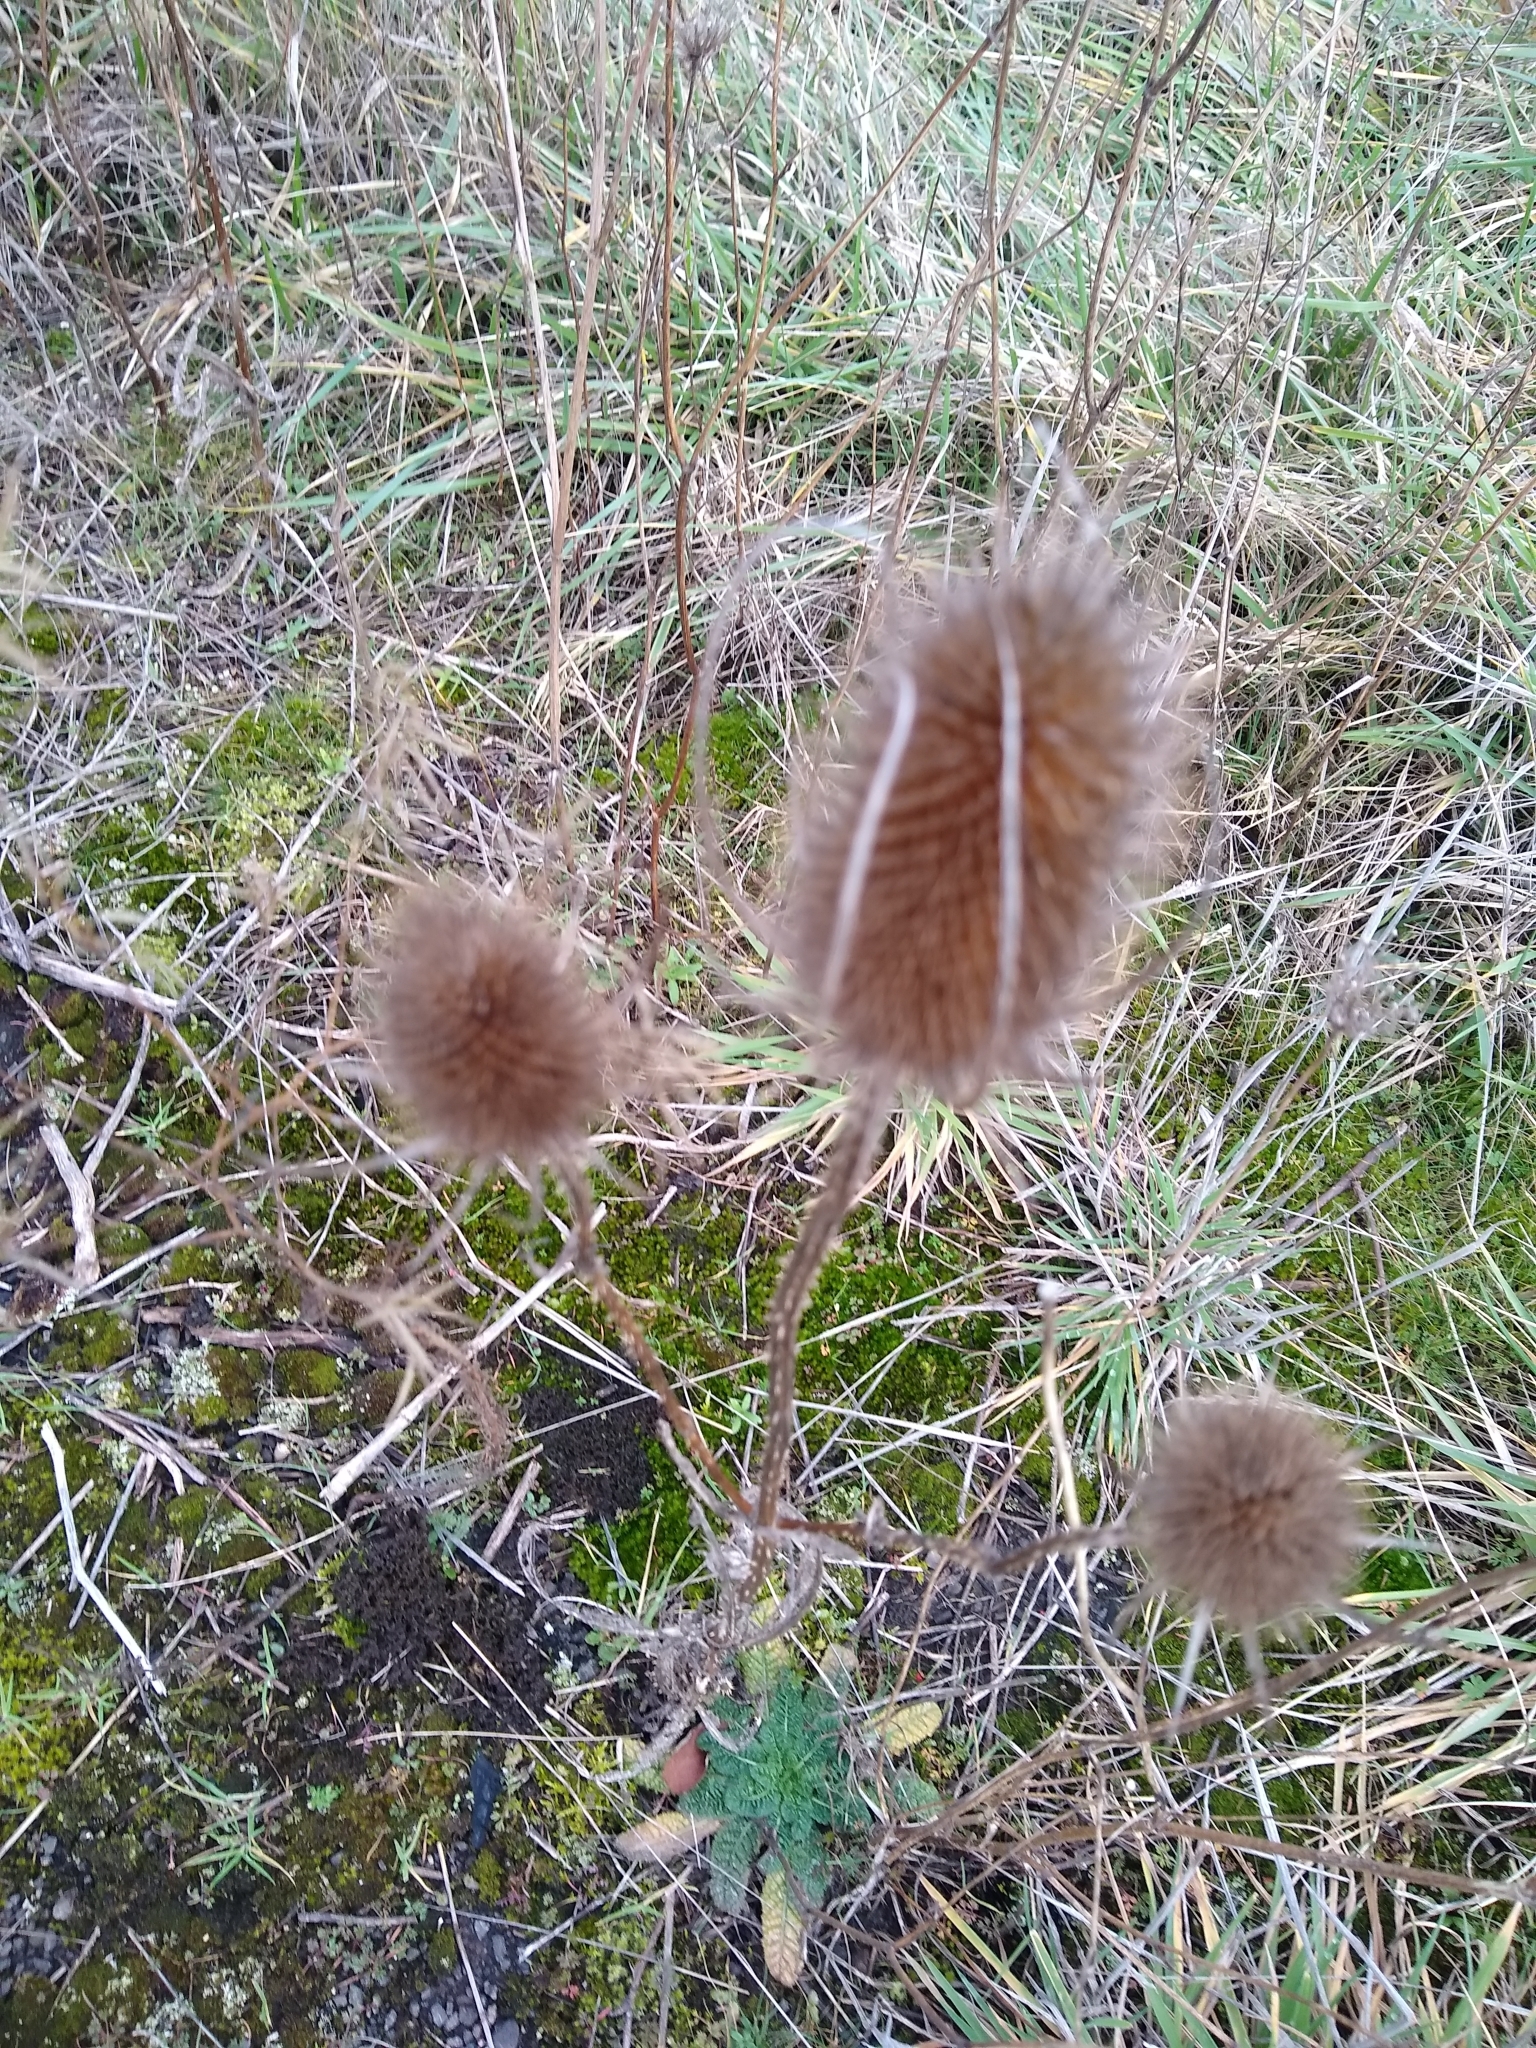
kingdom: Plantae
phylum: Tracheophyta
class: Magnoliopsida
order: Dipsacales
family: Caprifoliaceae
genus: Dipsacus
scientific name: Dipsacus fullonum
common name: Teasel
